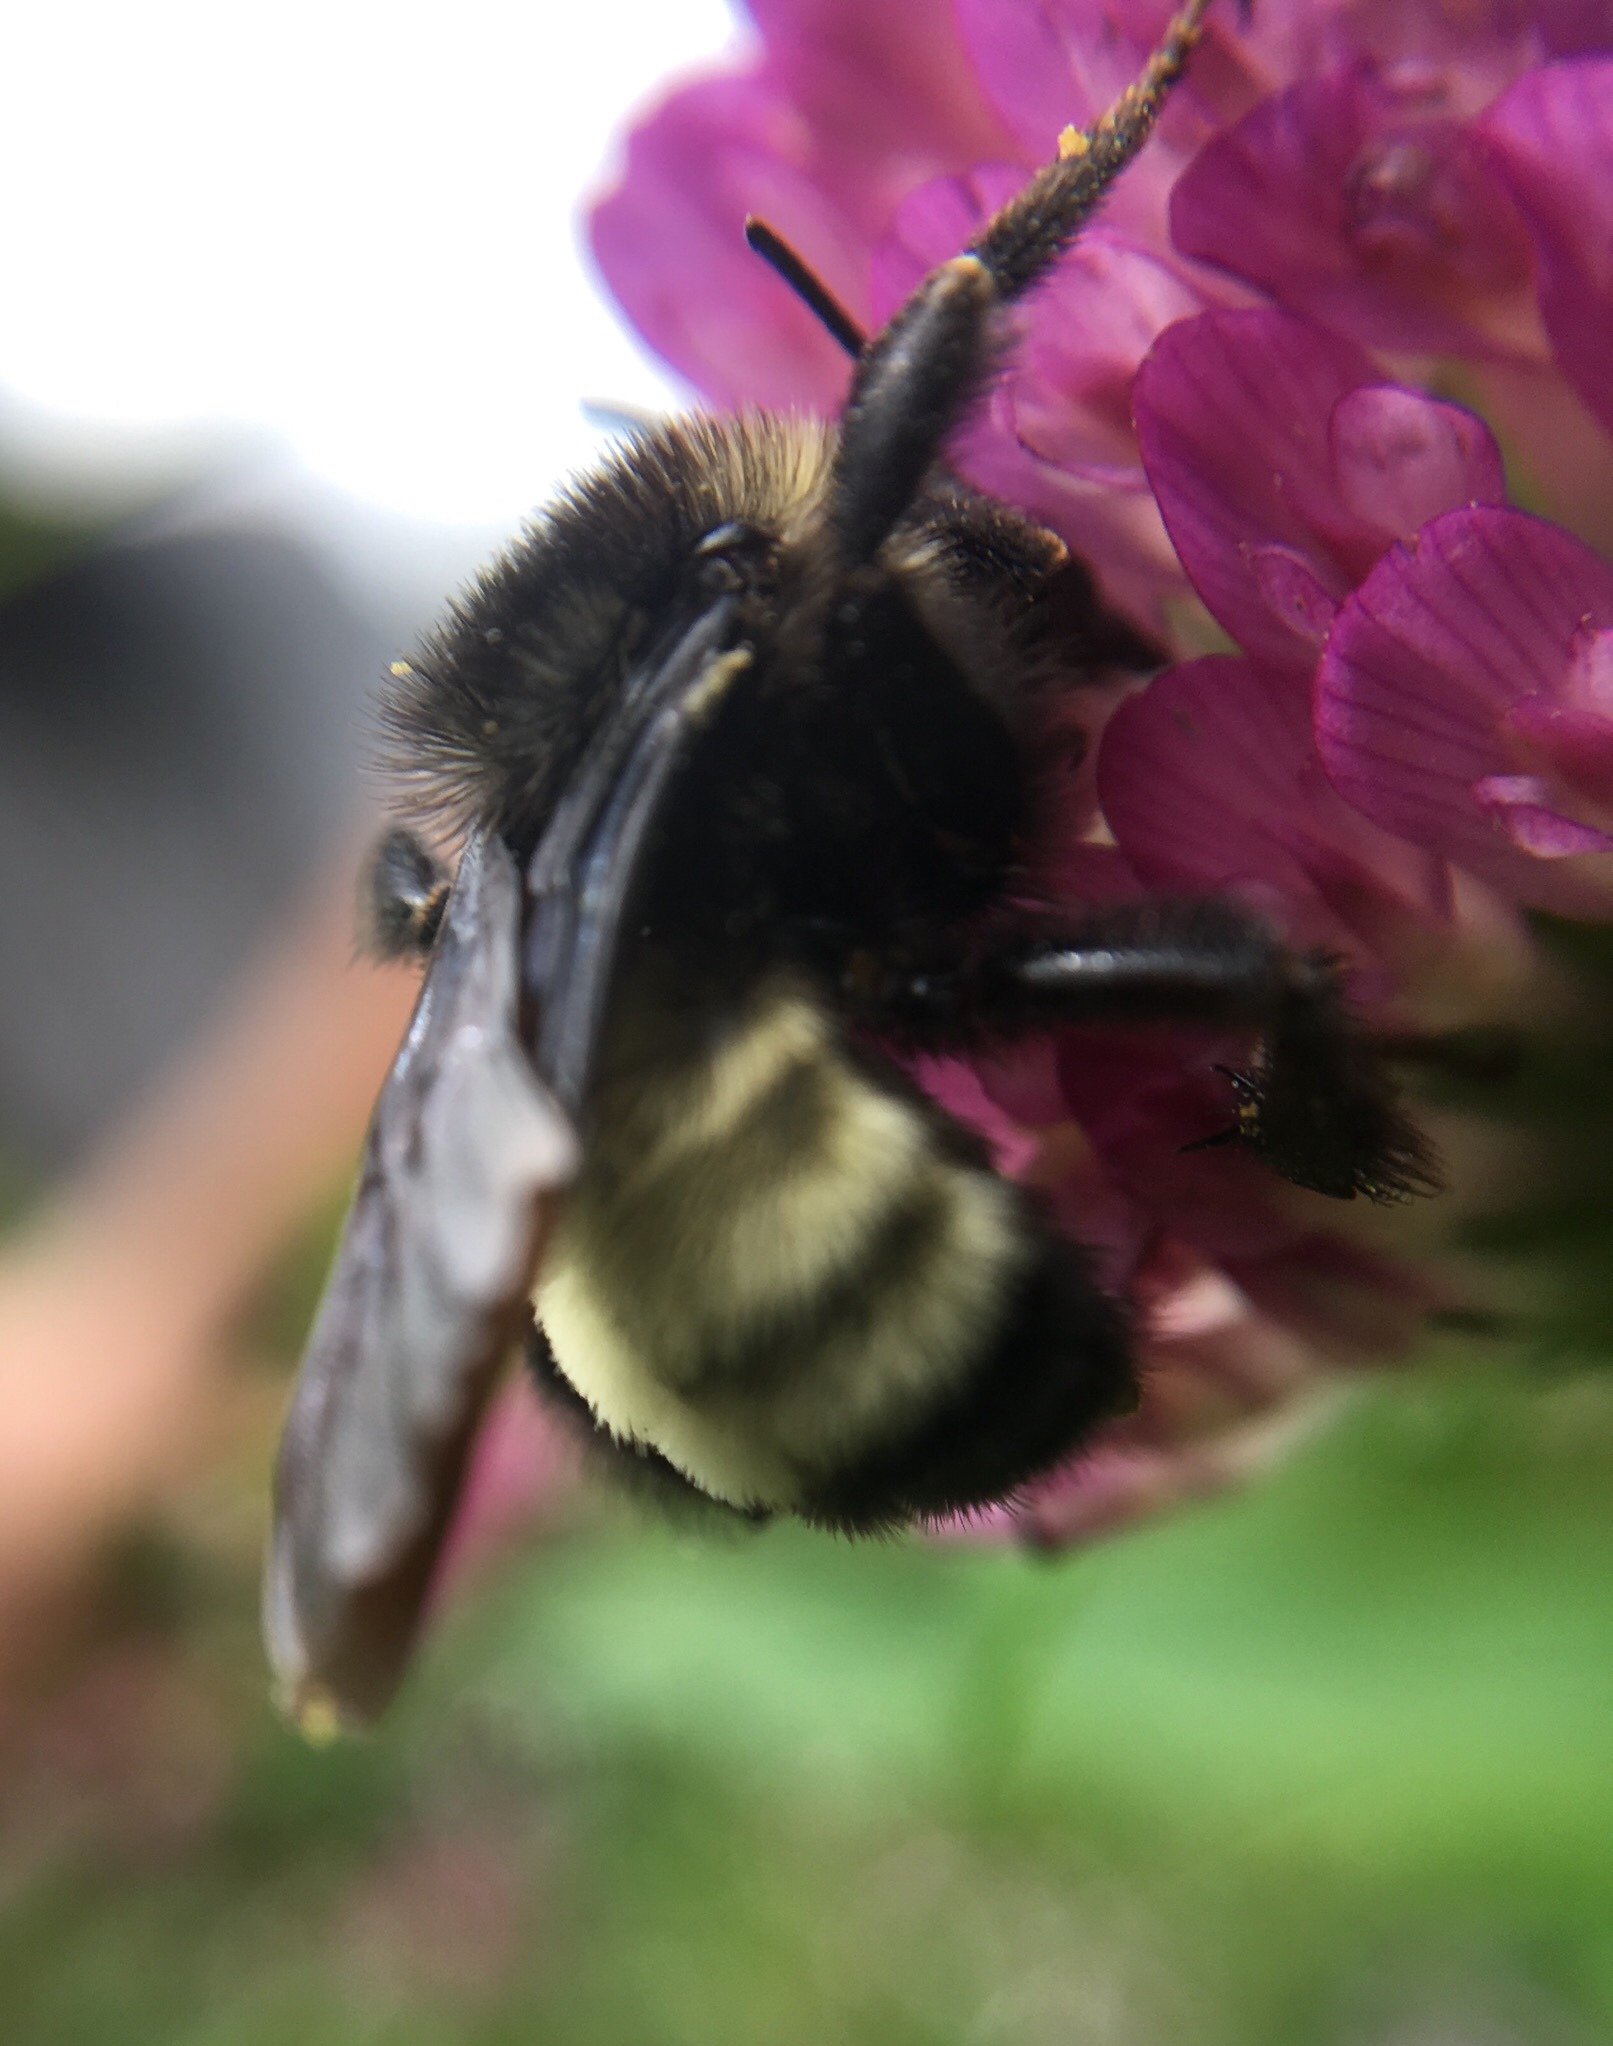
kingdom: Animalia
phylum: Arthropoda
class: Insecta
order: Hymenoptera
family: Apidae
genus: Bombus
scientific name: Bombus pensylvanicus
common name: Bumble bee
